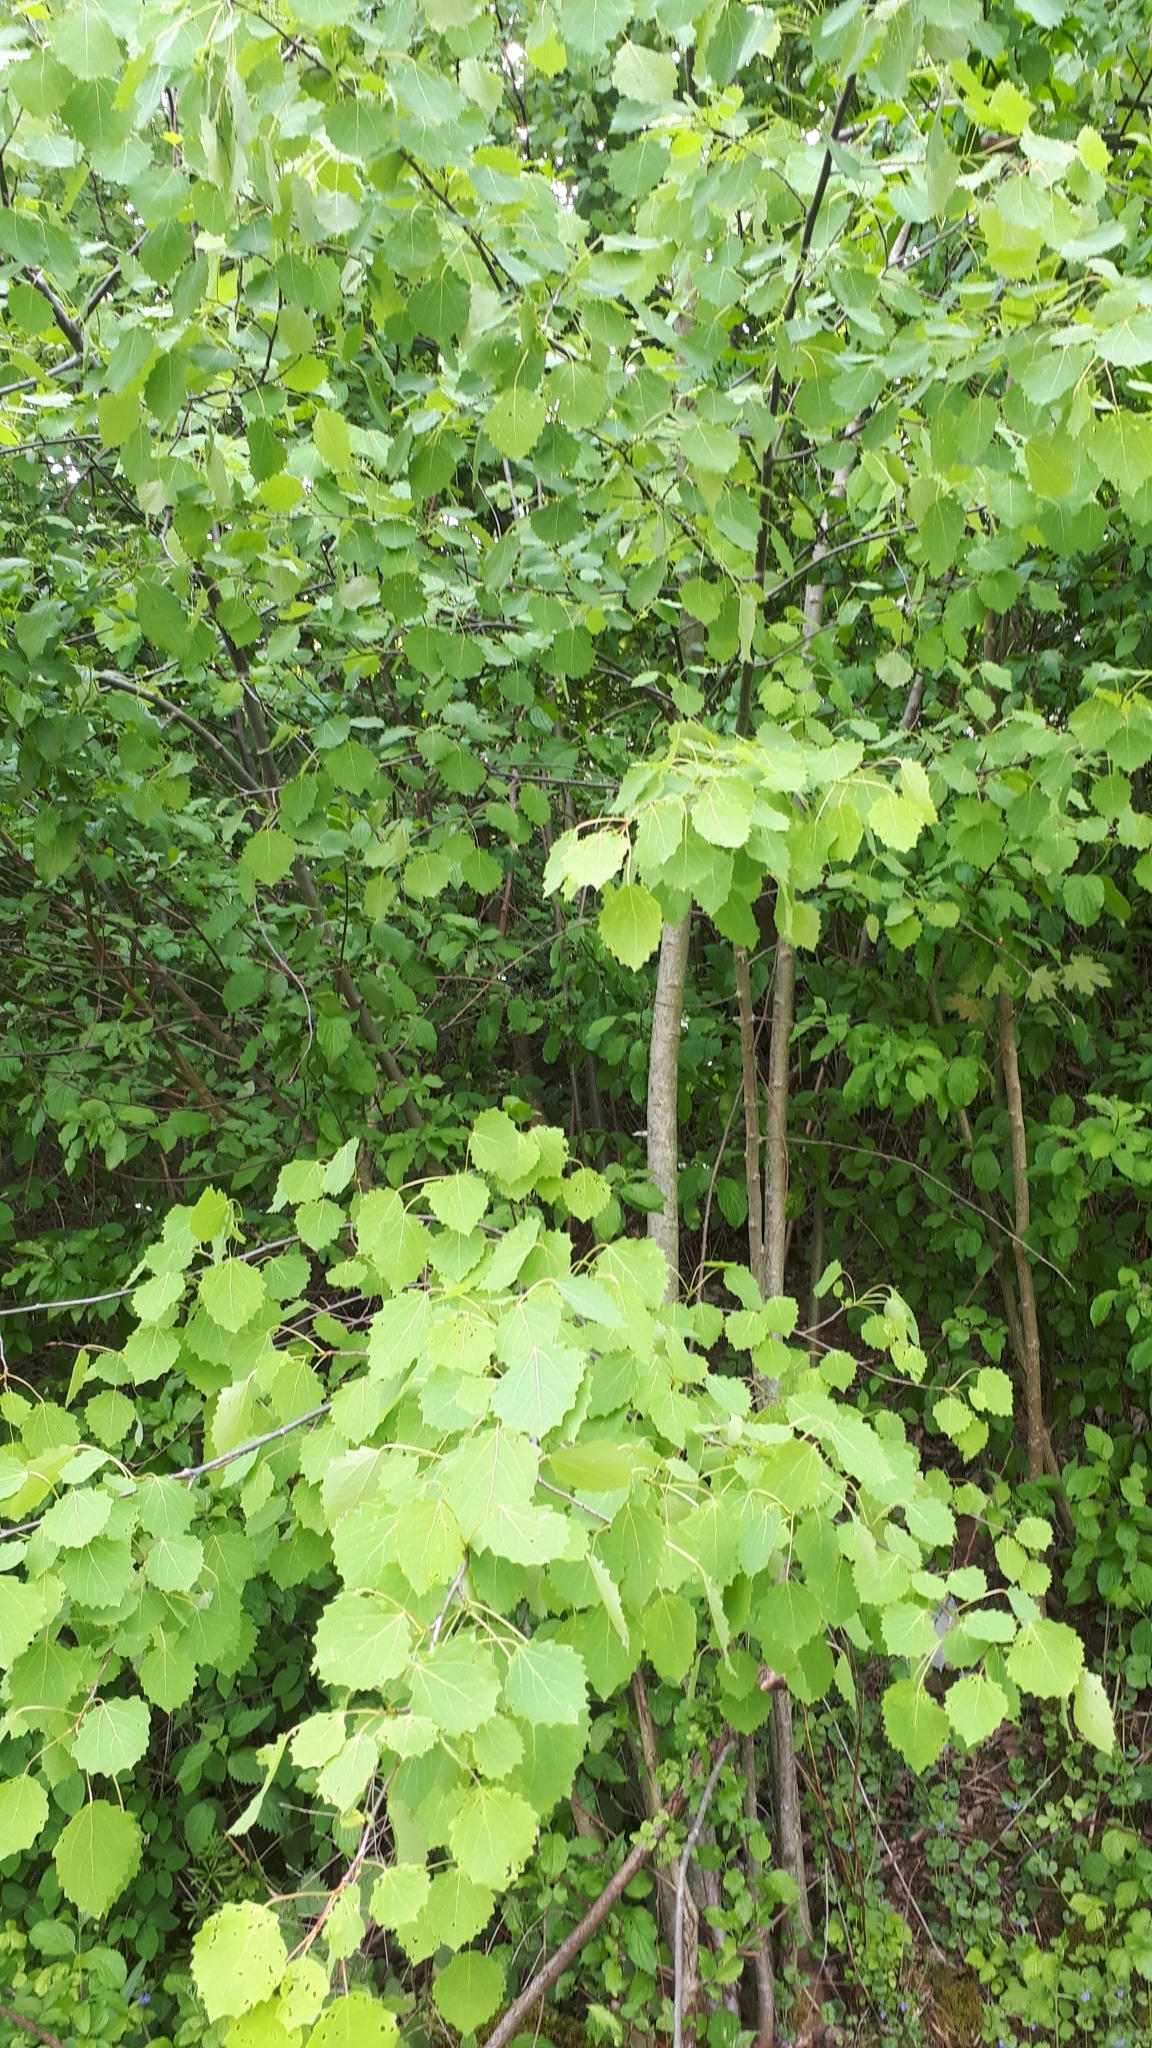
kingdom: Plantae
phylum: Tracheophyta
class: Magnoliopsida
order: Malpighiales
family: Salicaceae
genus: Populus
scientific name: Populus tremula
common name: European aspen
